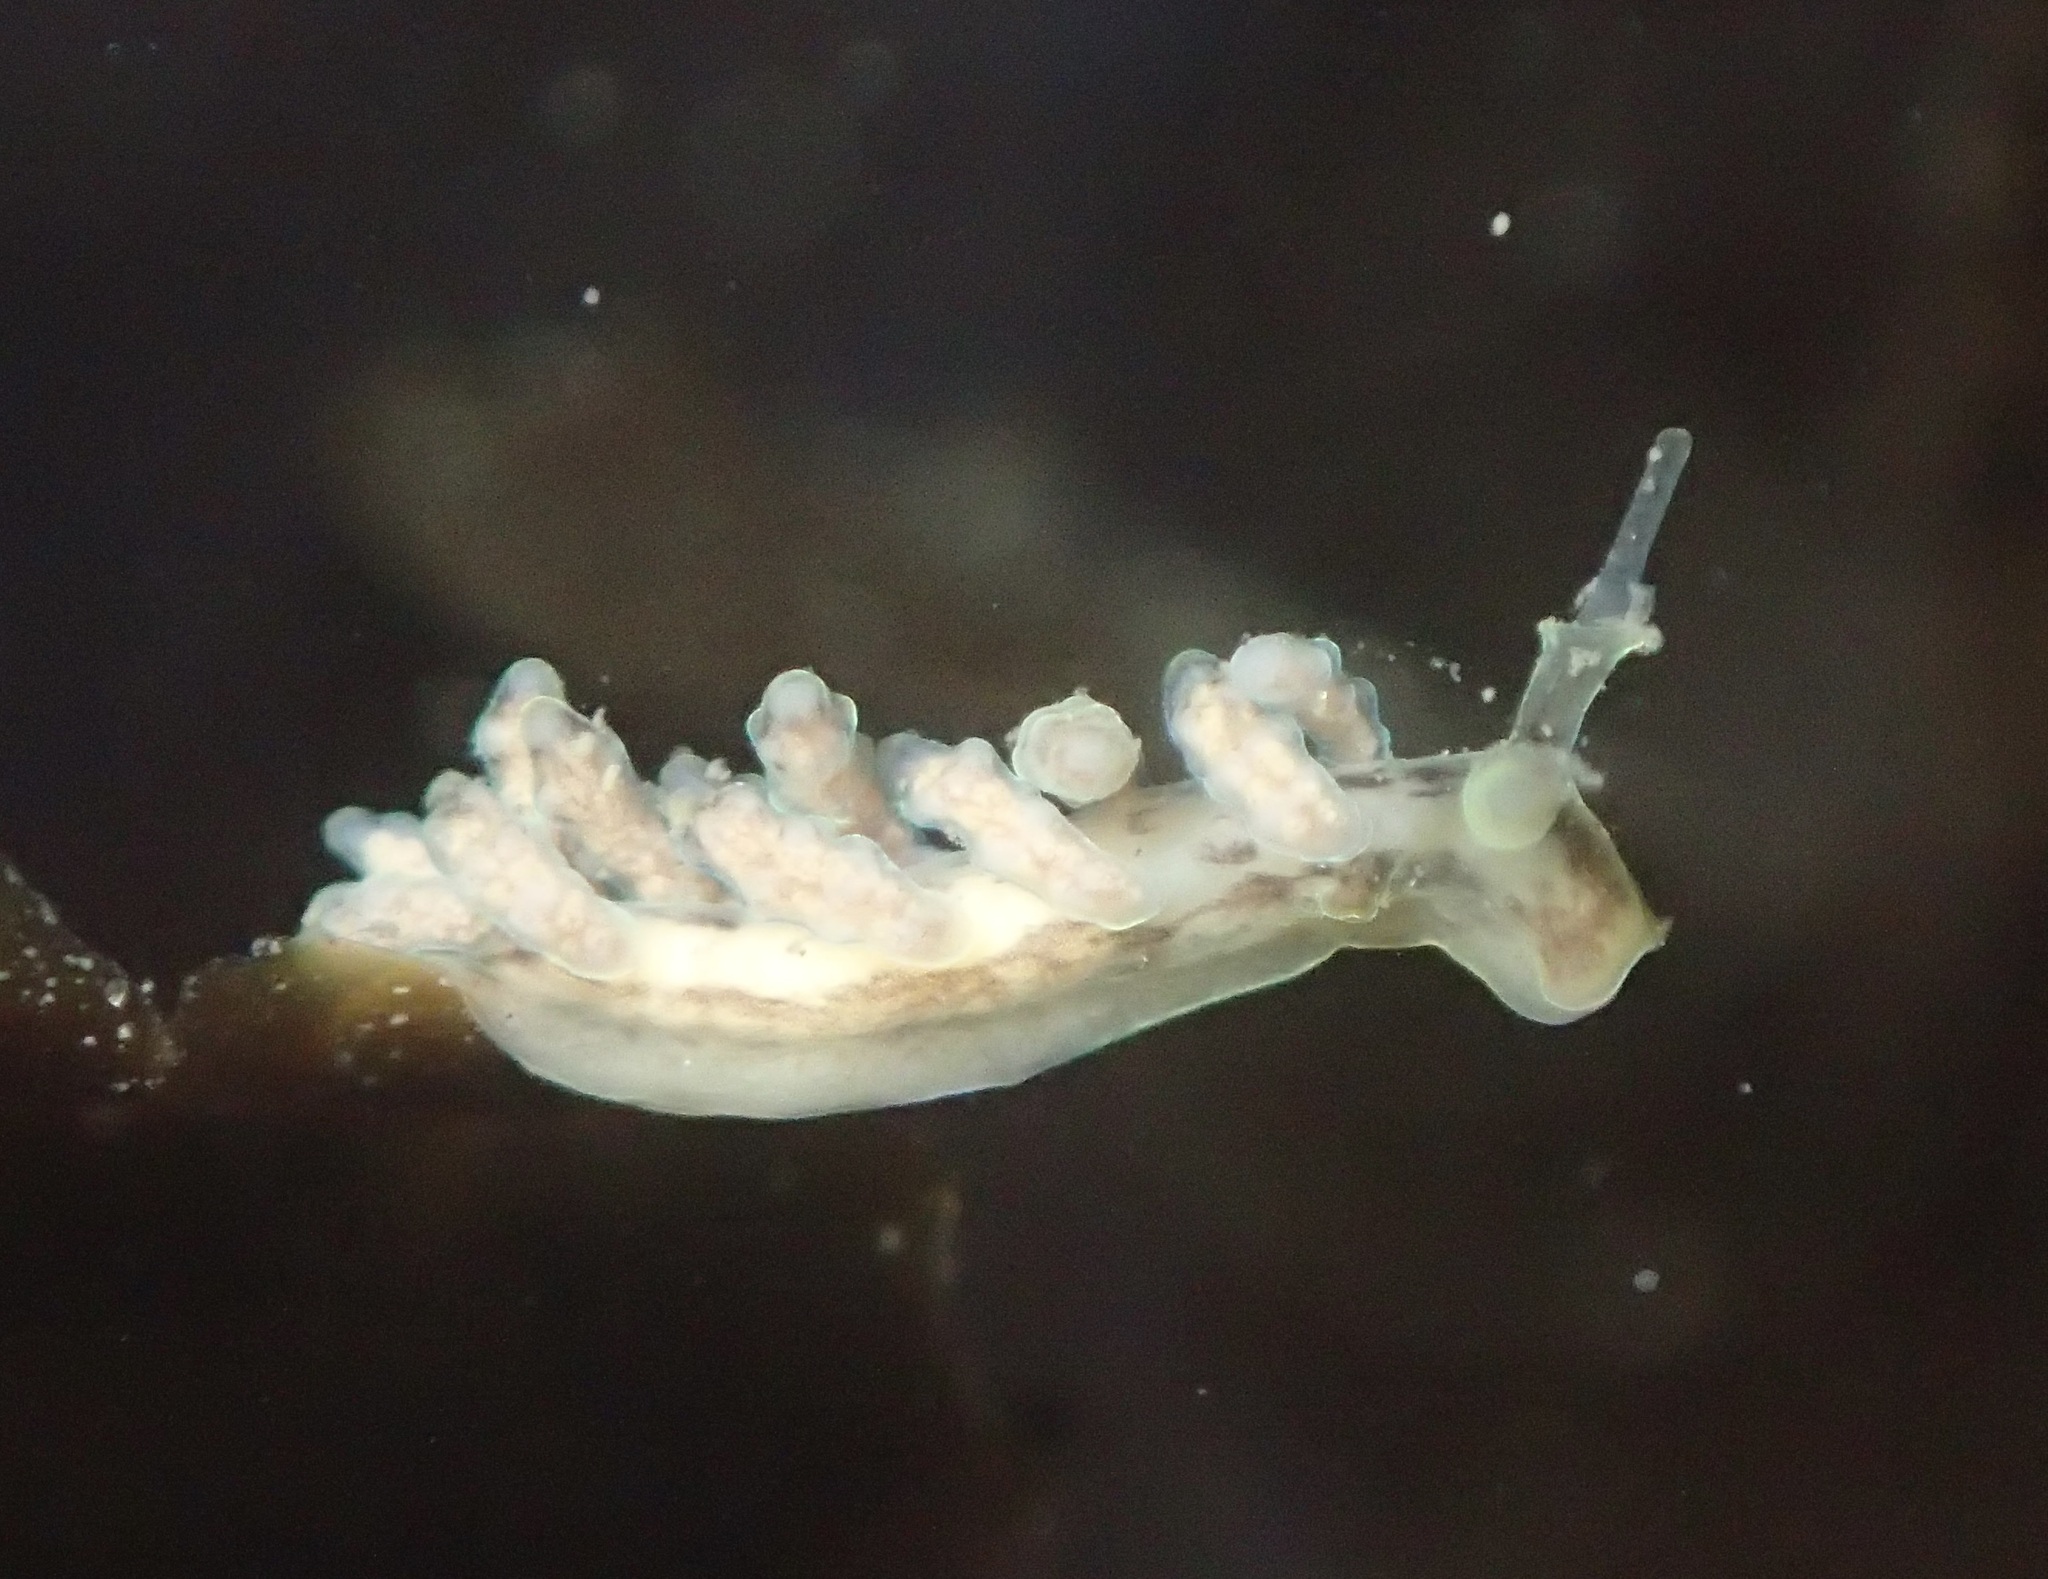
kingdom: Animalia
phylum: Mollusca
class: Gastropoda
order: Nudibranchia
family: Dotidae
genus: Doto
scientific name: Doto columbiana
